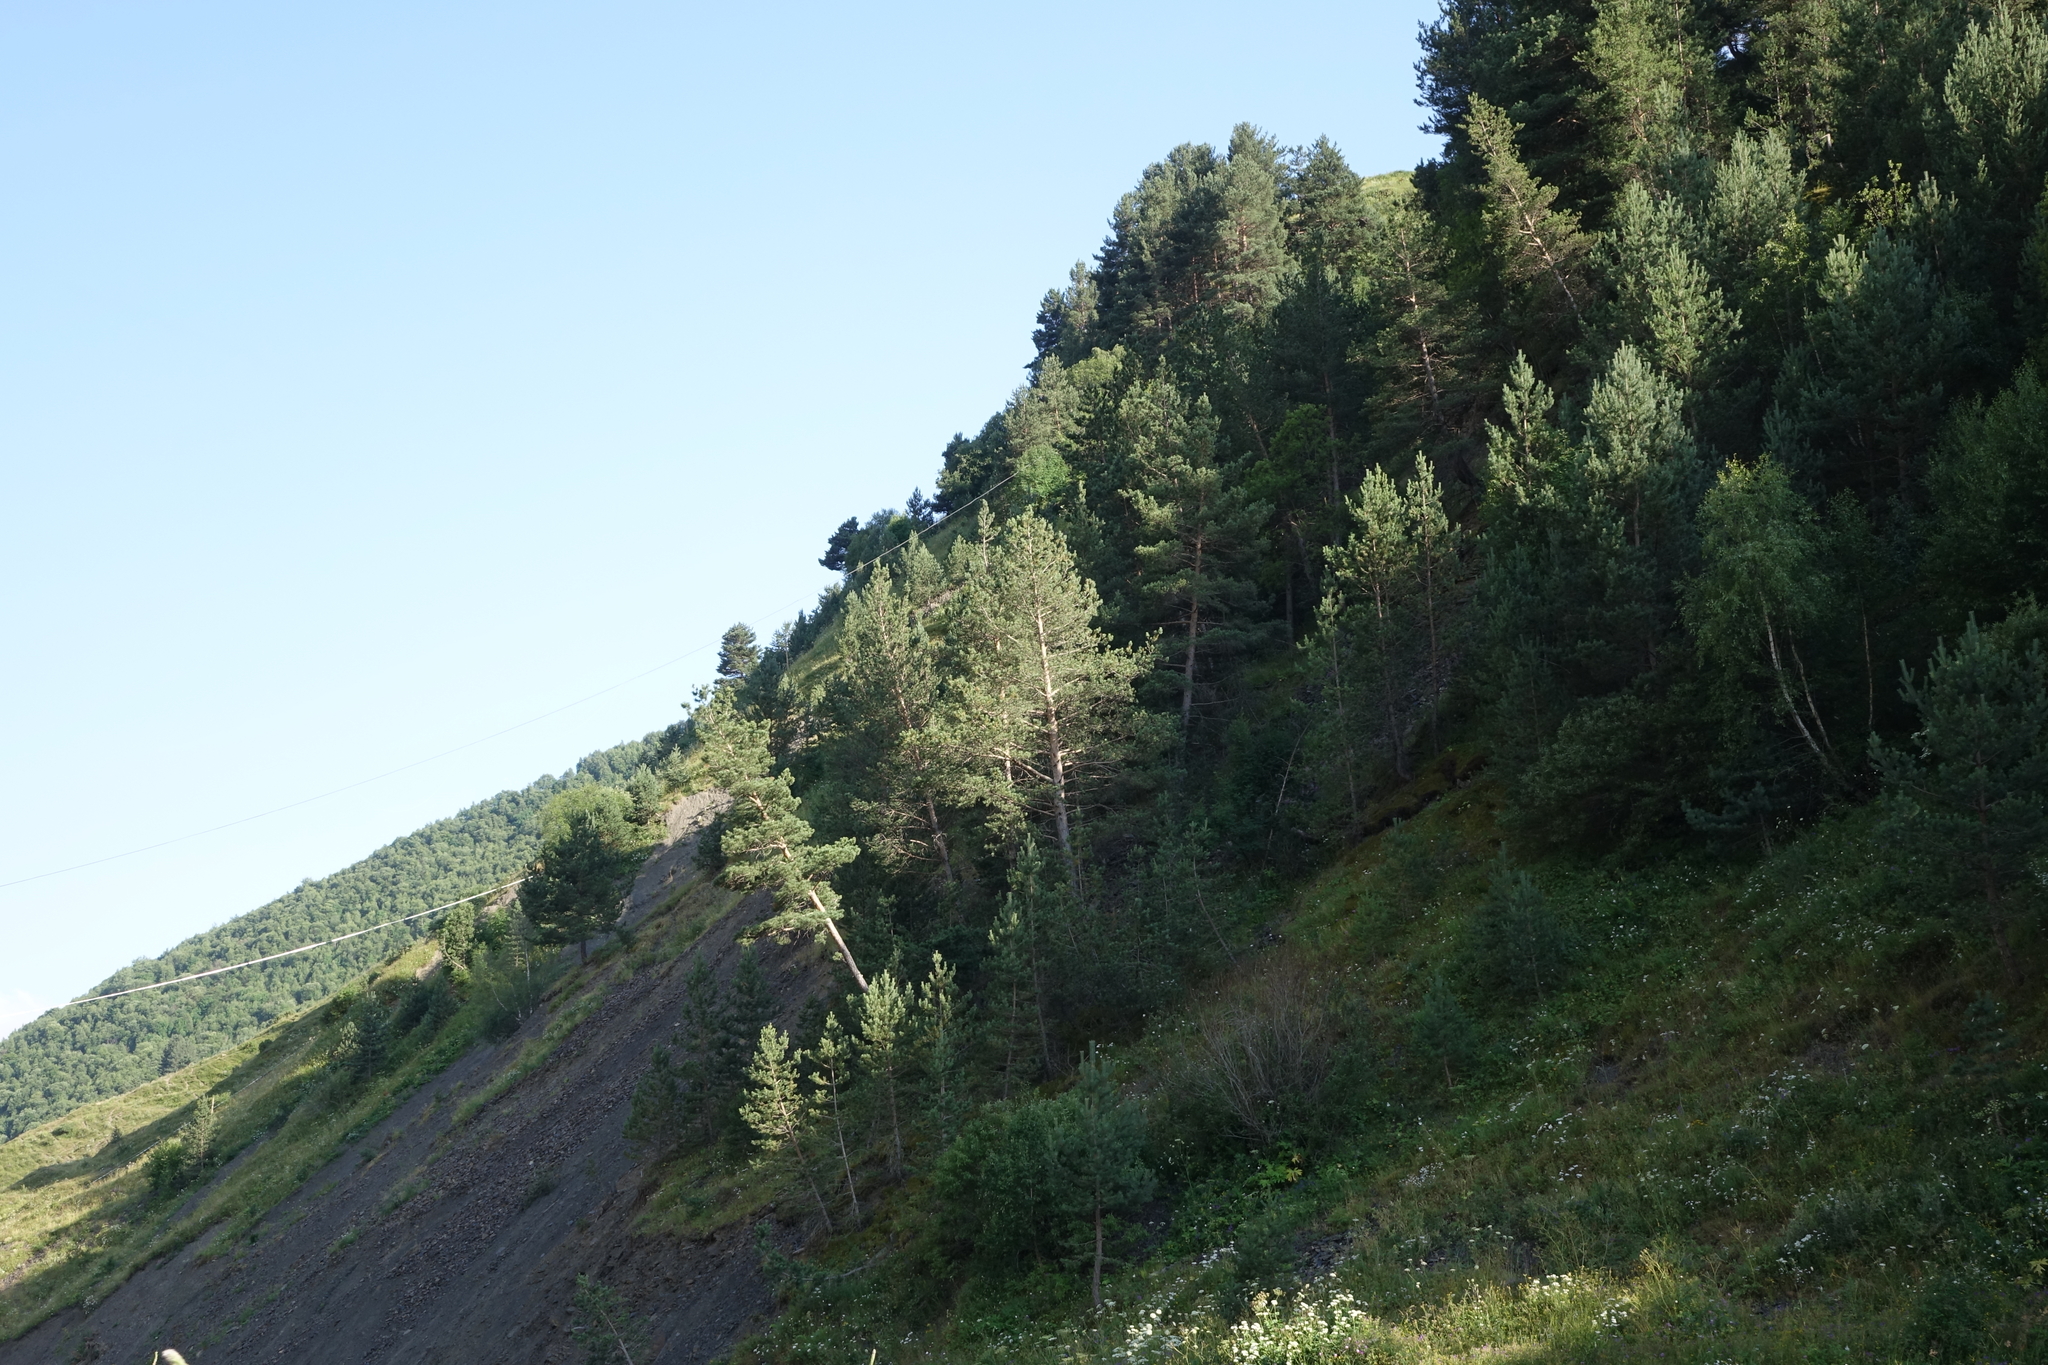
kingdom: Plantae
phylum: Tracheophyta
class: Pinopsida
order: Pinales
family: Pinaceae
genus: Pinus
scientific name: Pinus sylvestris
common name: Scots pine
